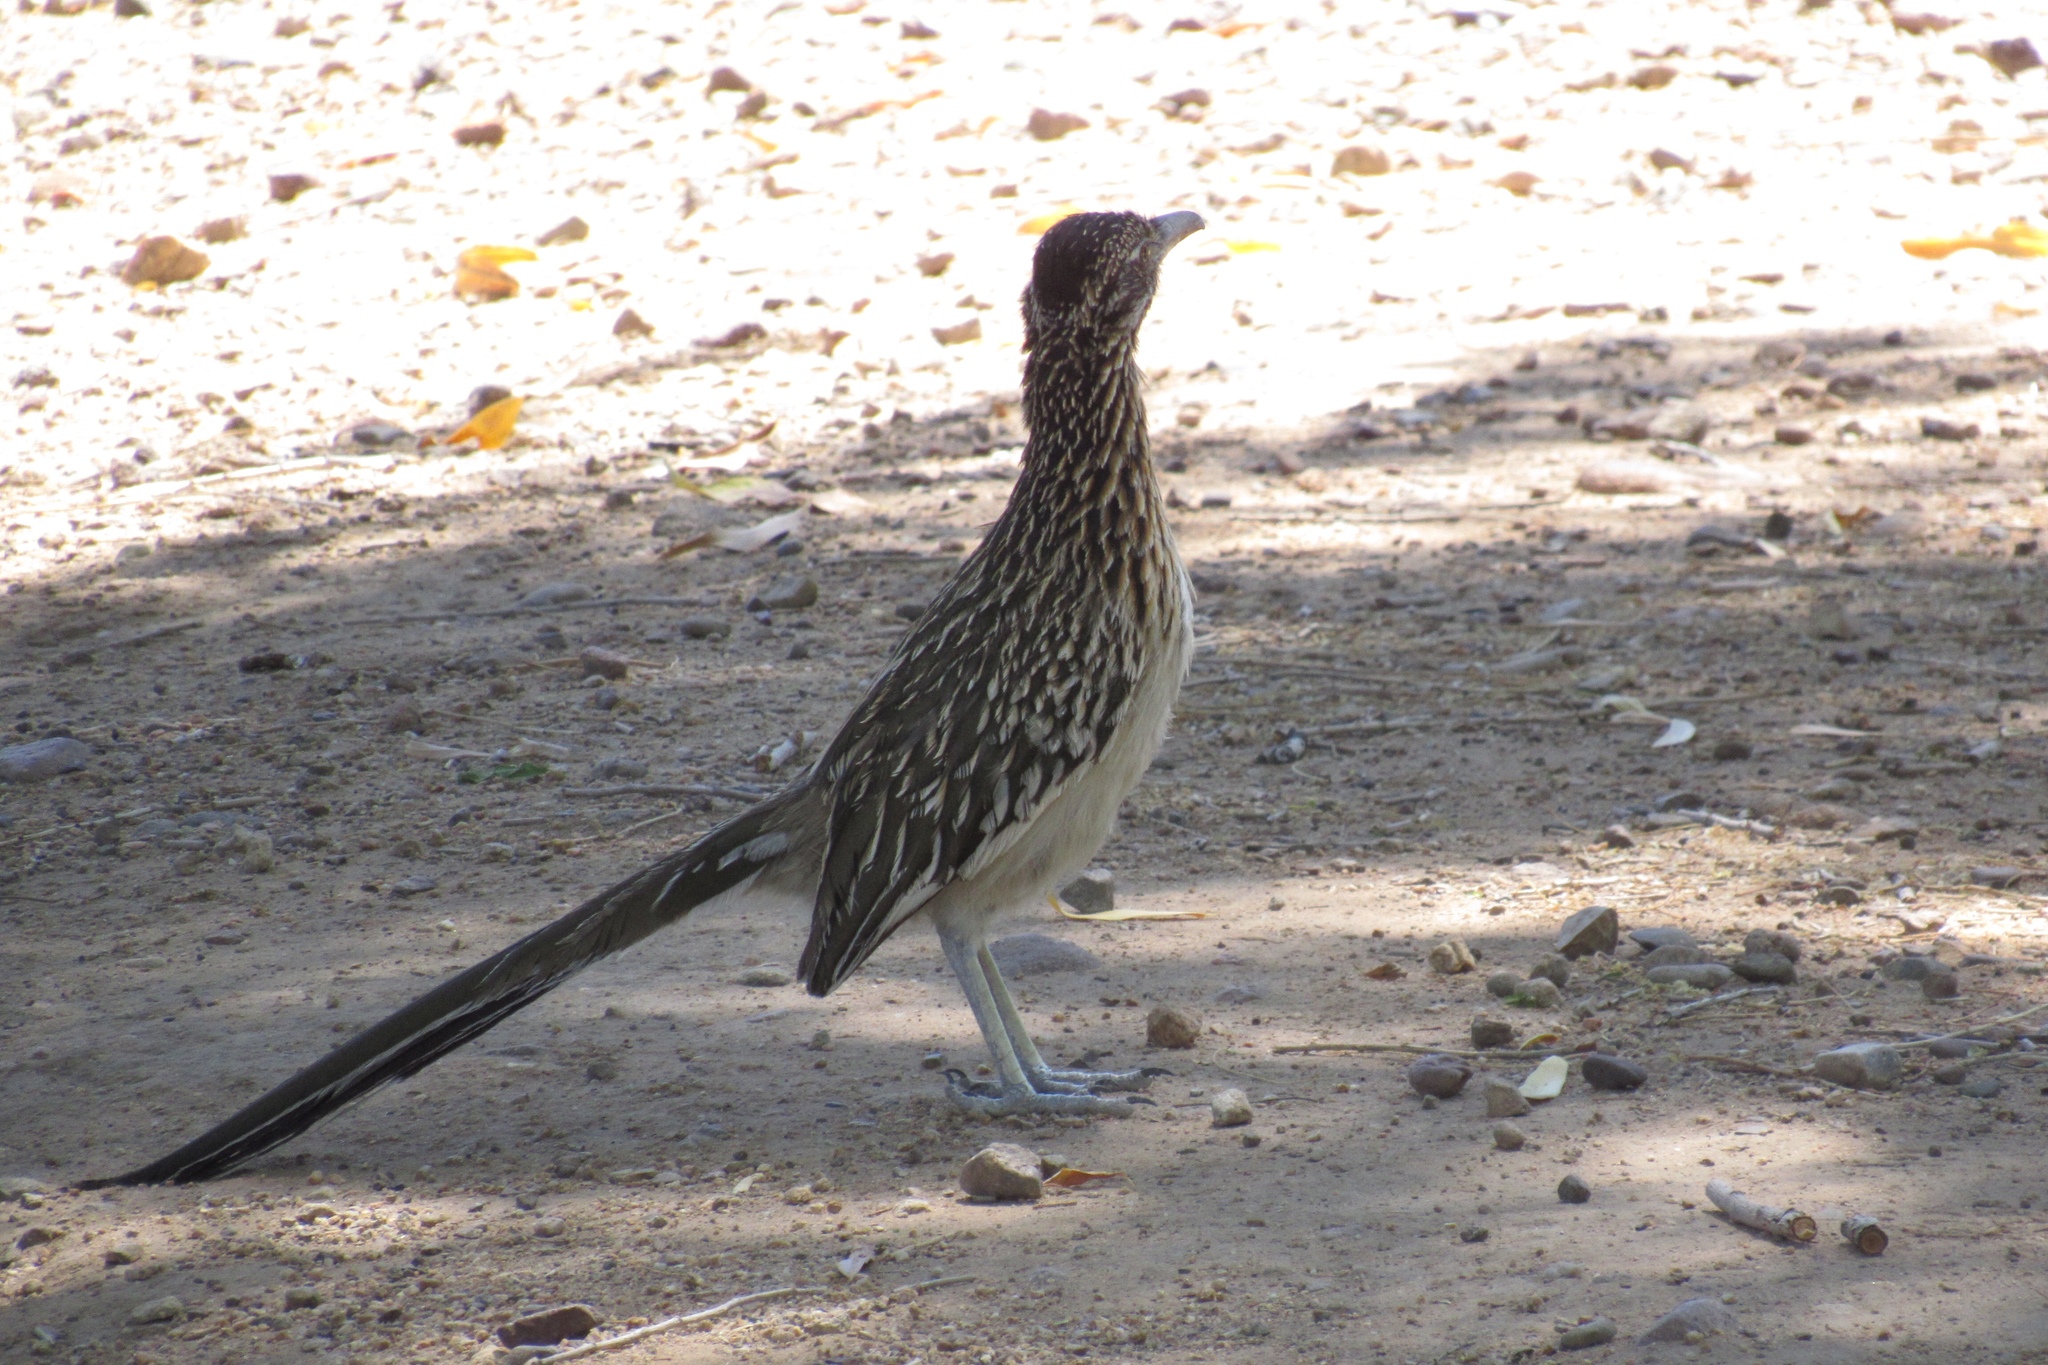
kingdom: Animalia
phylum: Chordata
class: Aves
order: Cuculiformes
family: Cuculidae
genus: Geococcyx
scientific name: Geococcyx californianus
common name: Greater roadrunner
